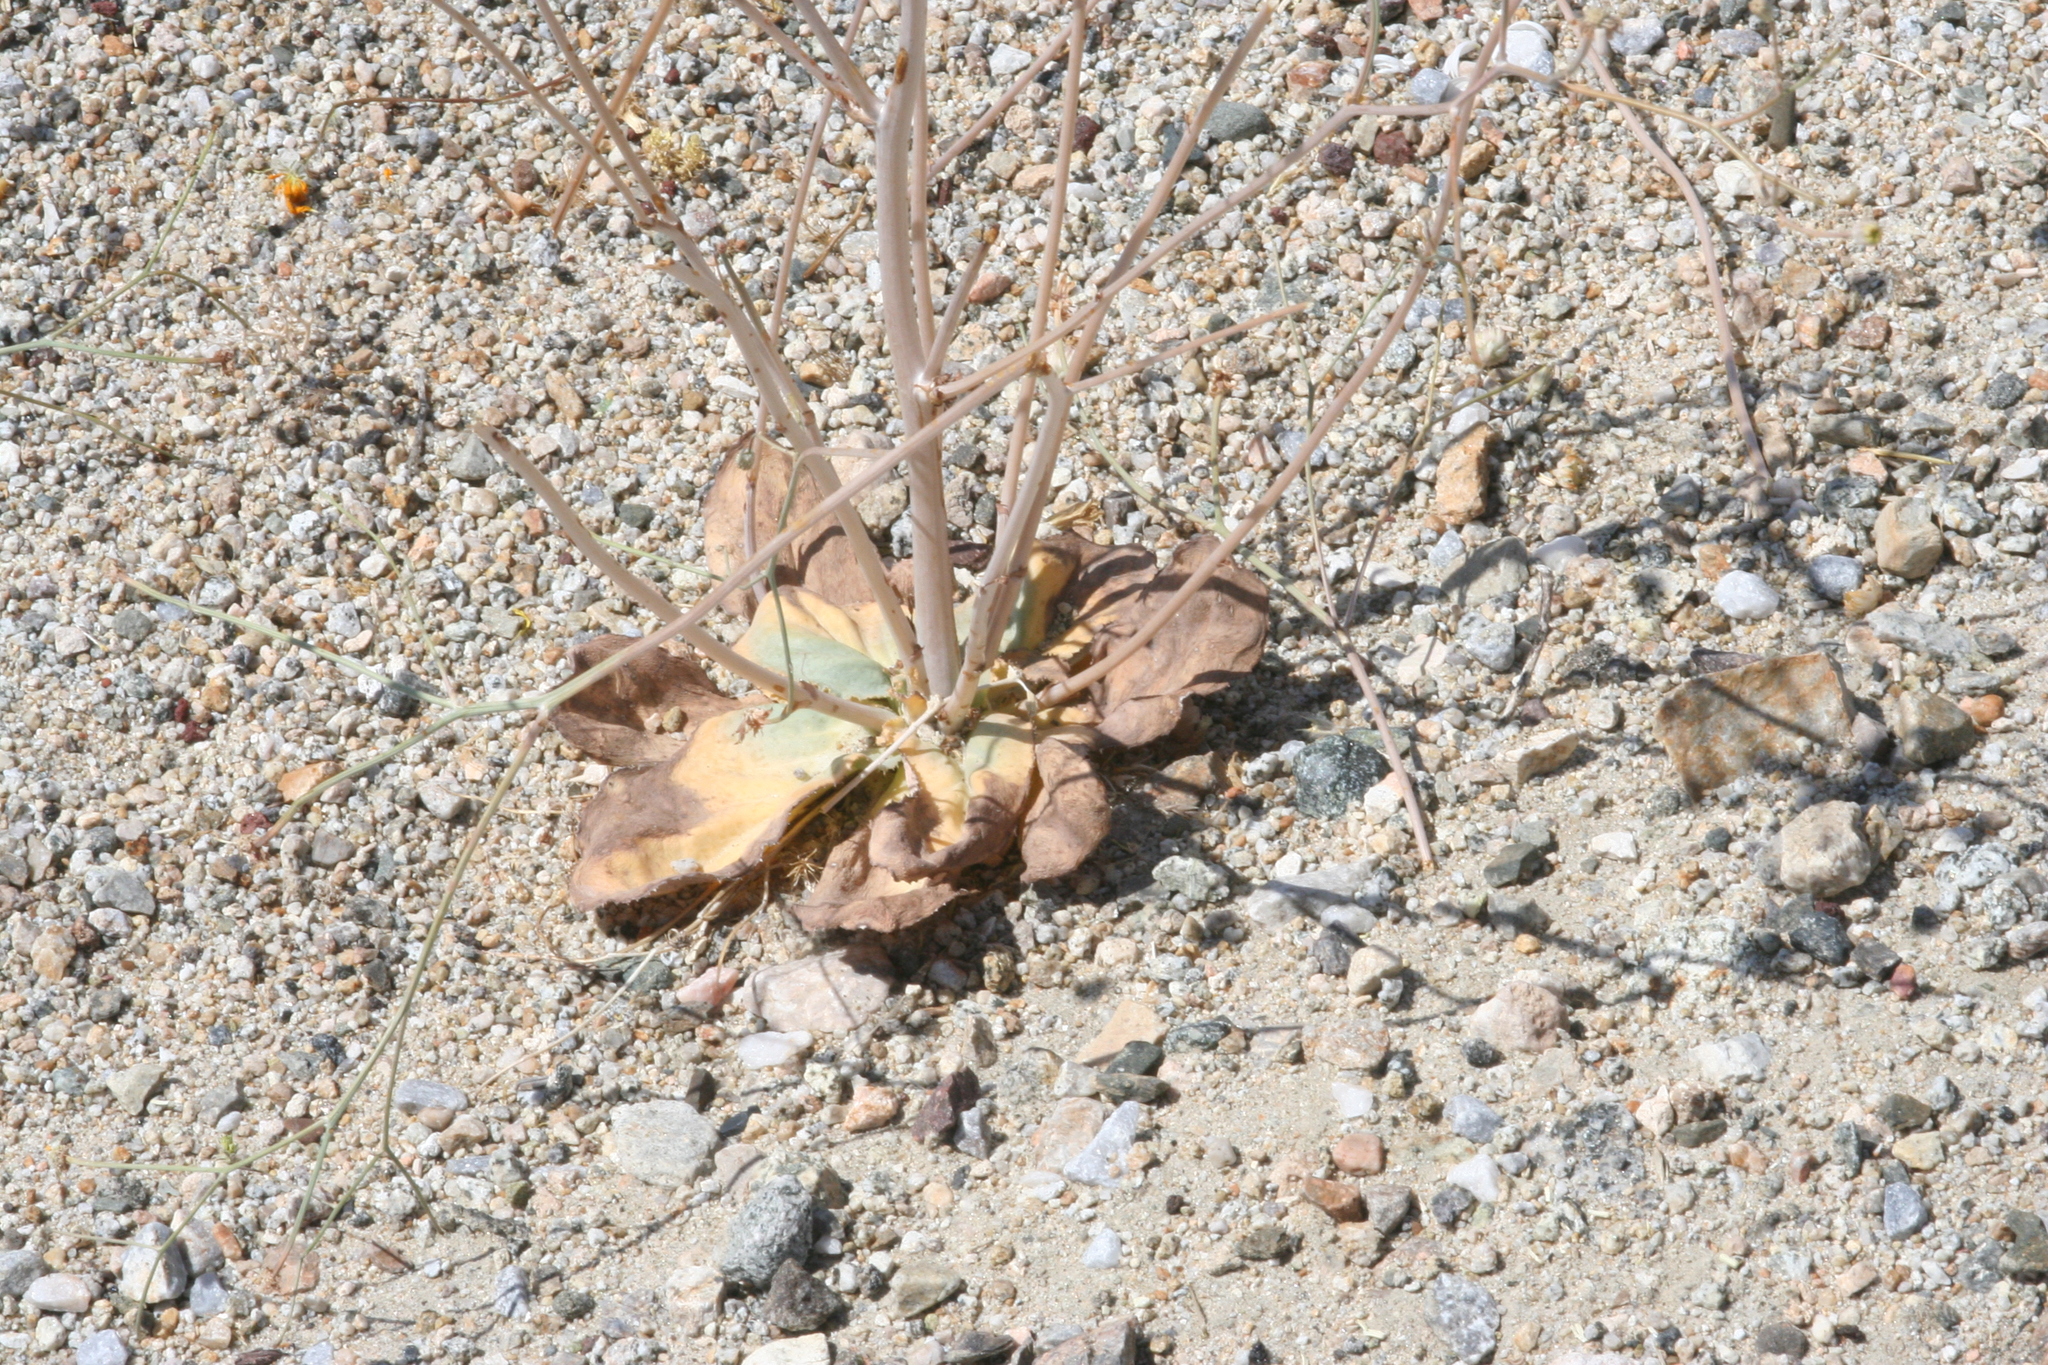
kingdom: Plantae
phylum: Tracheophyta
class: Magnoliopsida
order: Asterales
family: Asteraceae
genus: Atrichoseris
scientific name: Atrichoseris platyphylla
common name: Tobaccoweed
